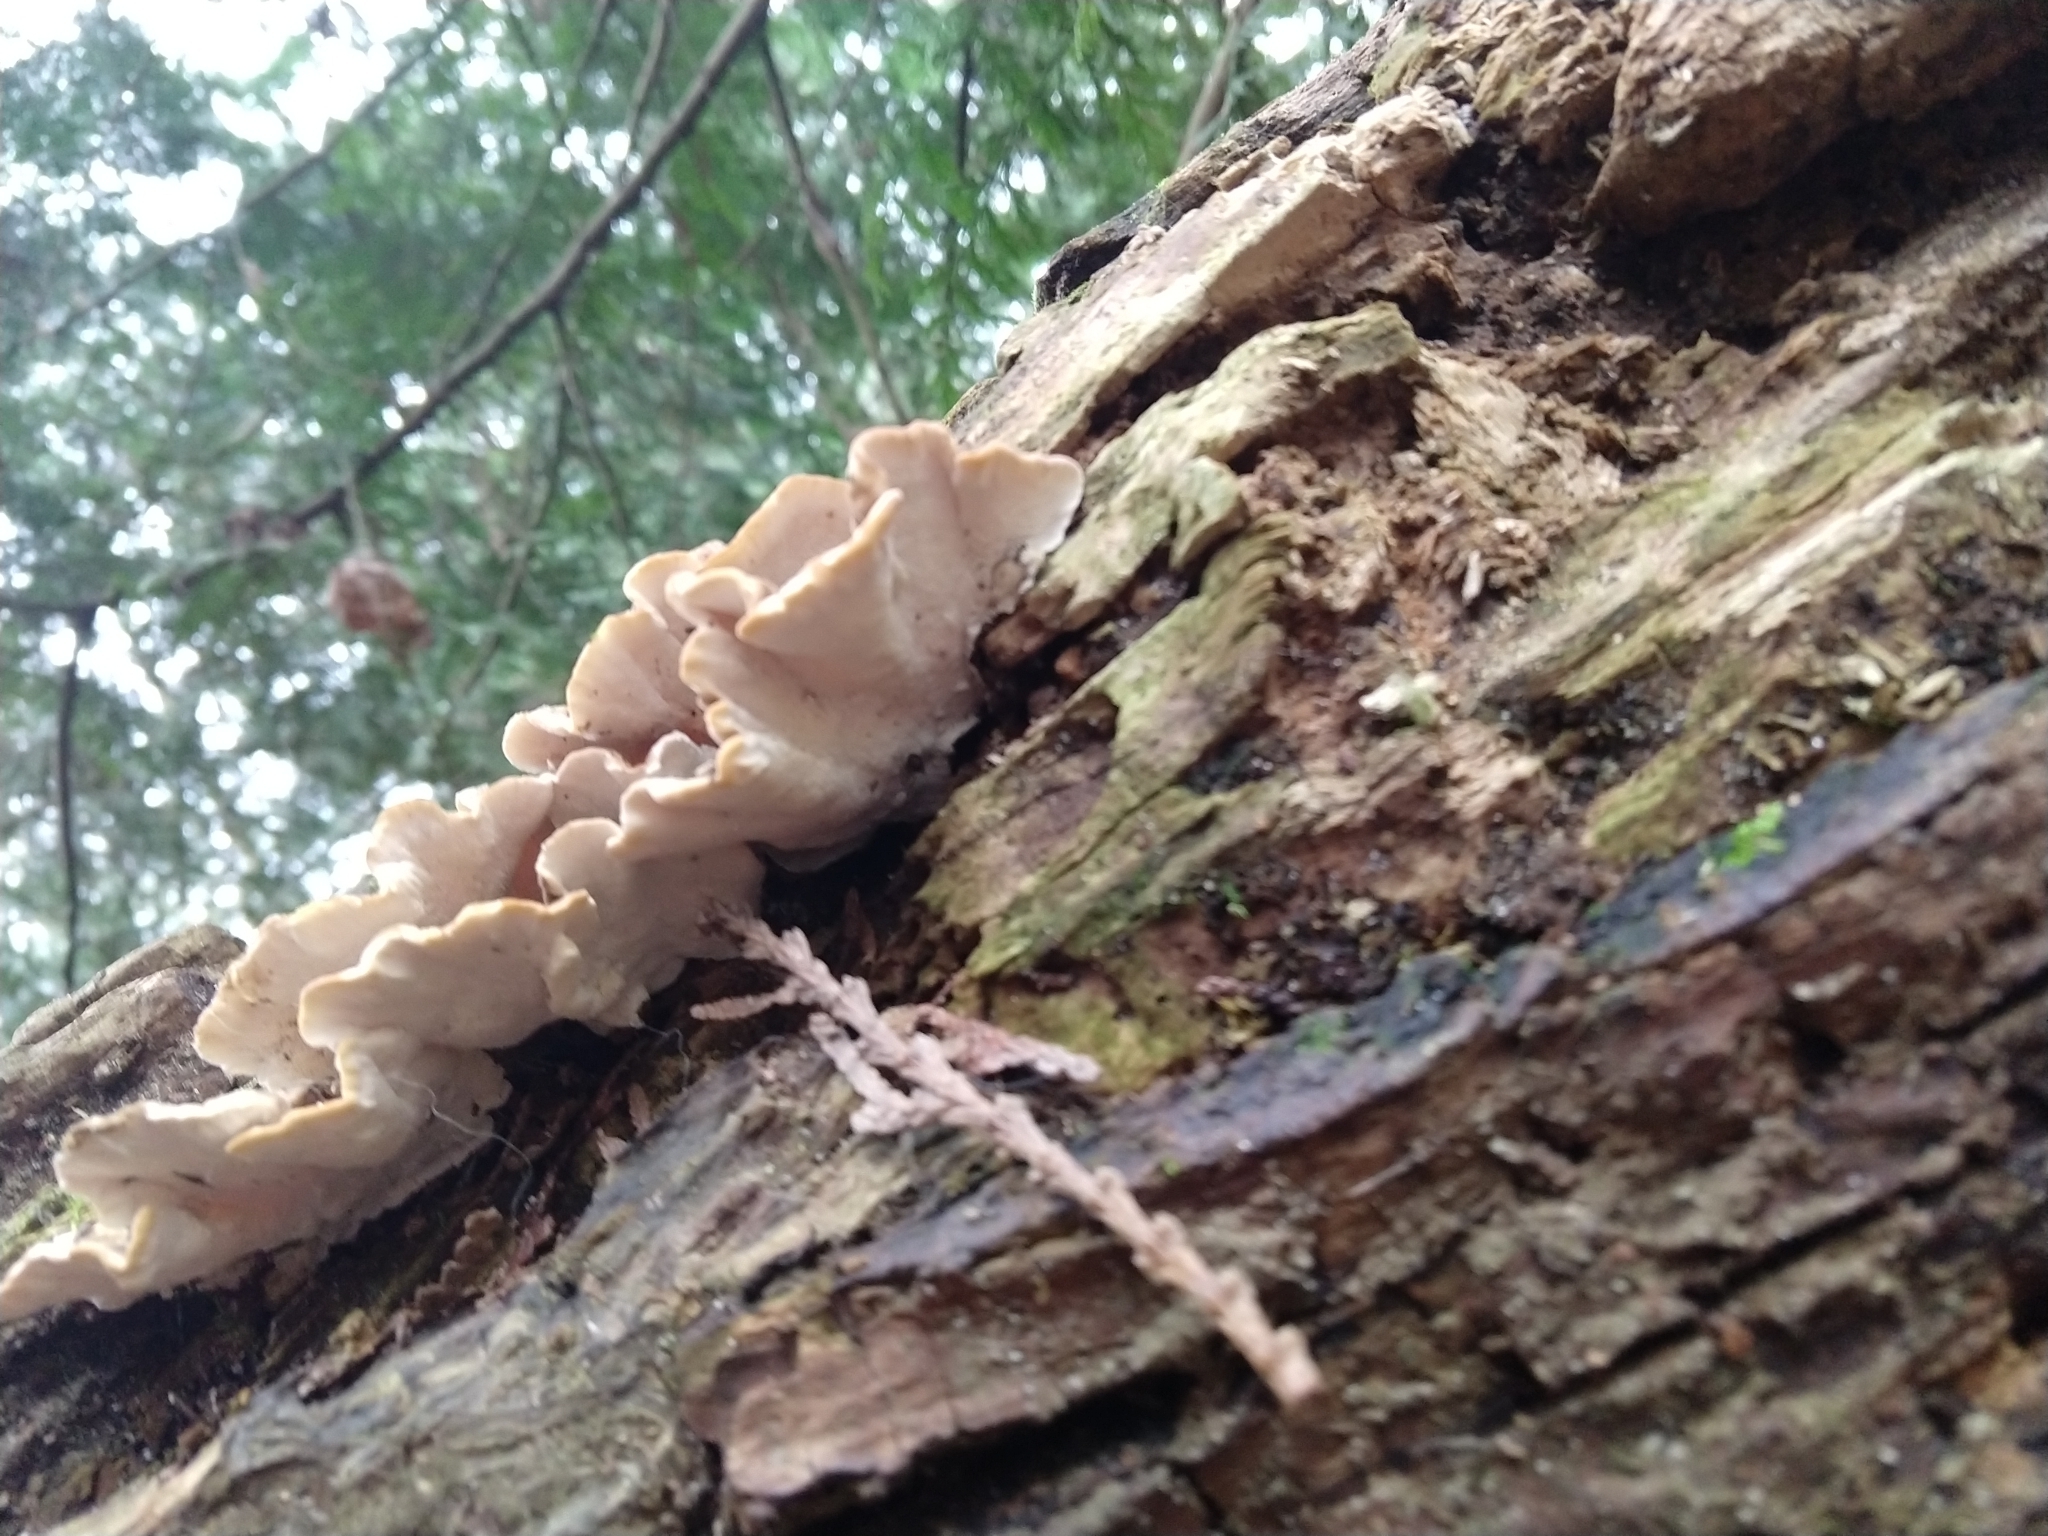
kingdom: Fungi
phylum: Basidiomycota
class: Agaricomycetes
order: Polyporales
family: Polyporaceae
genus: Trametes
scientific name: Trametes versicolor
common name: Turkeytail
